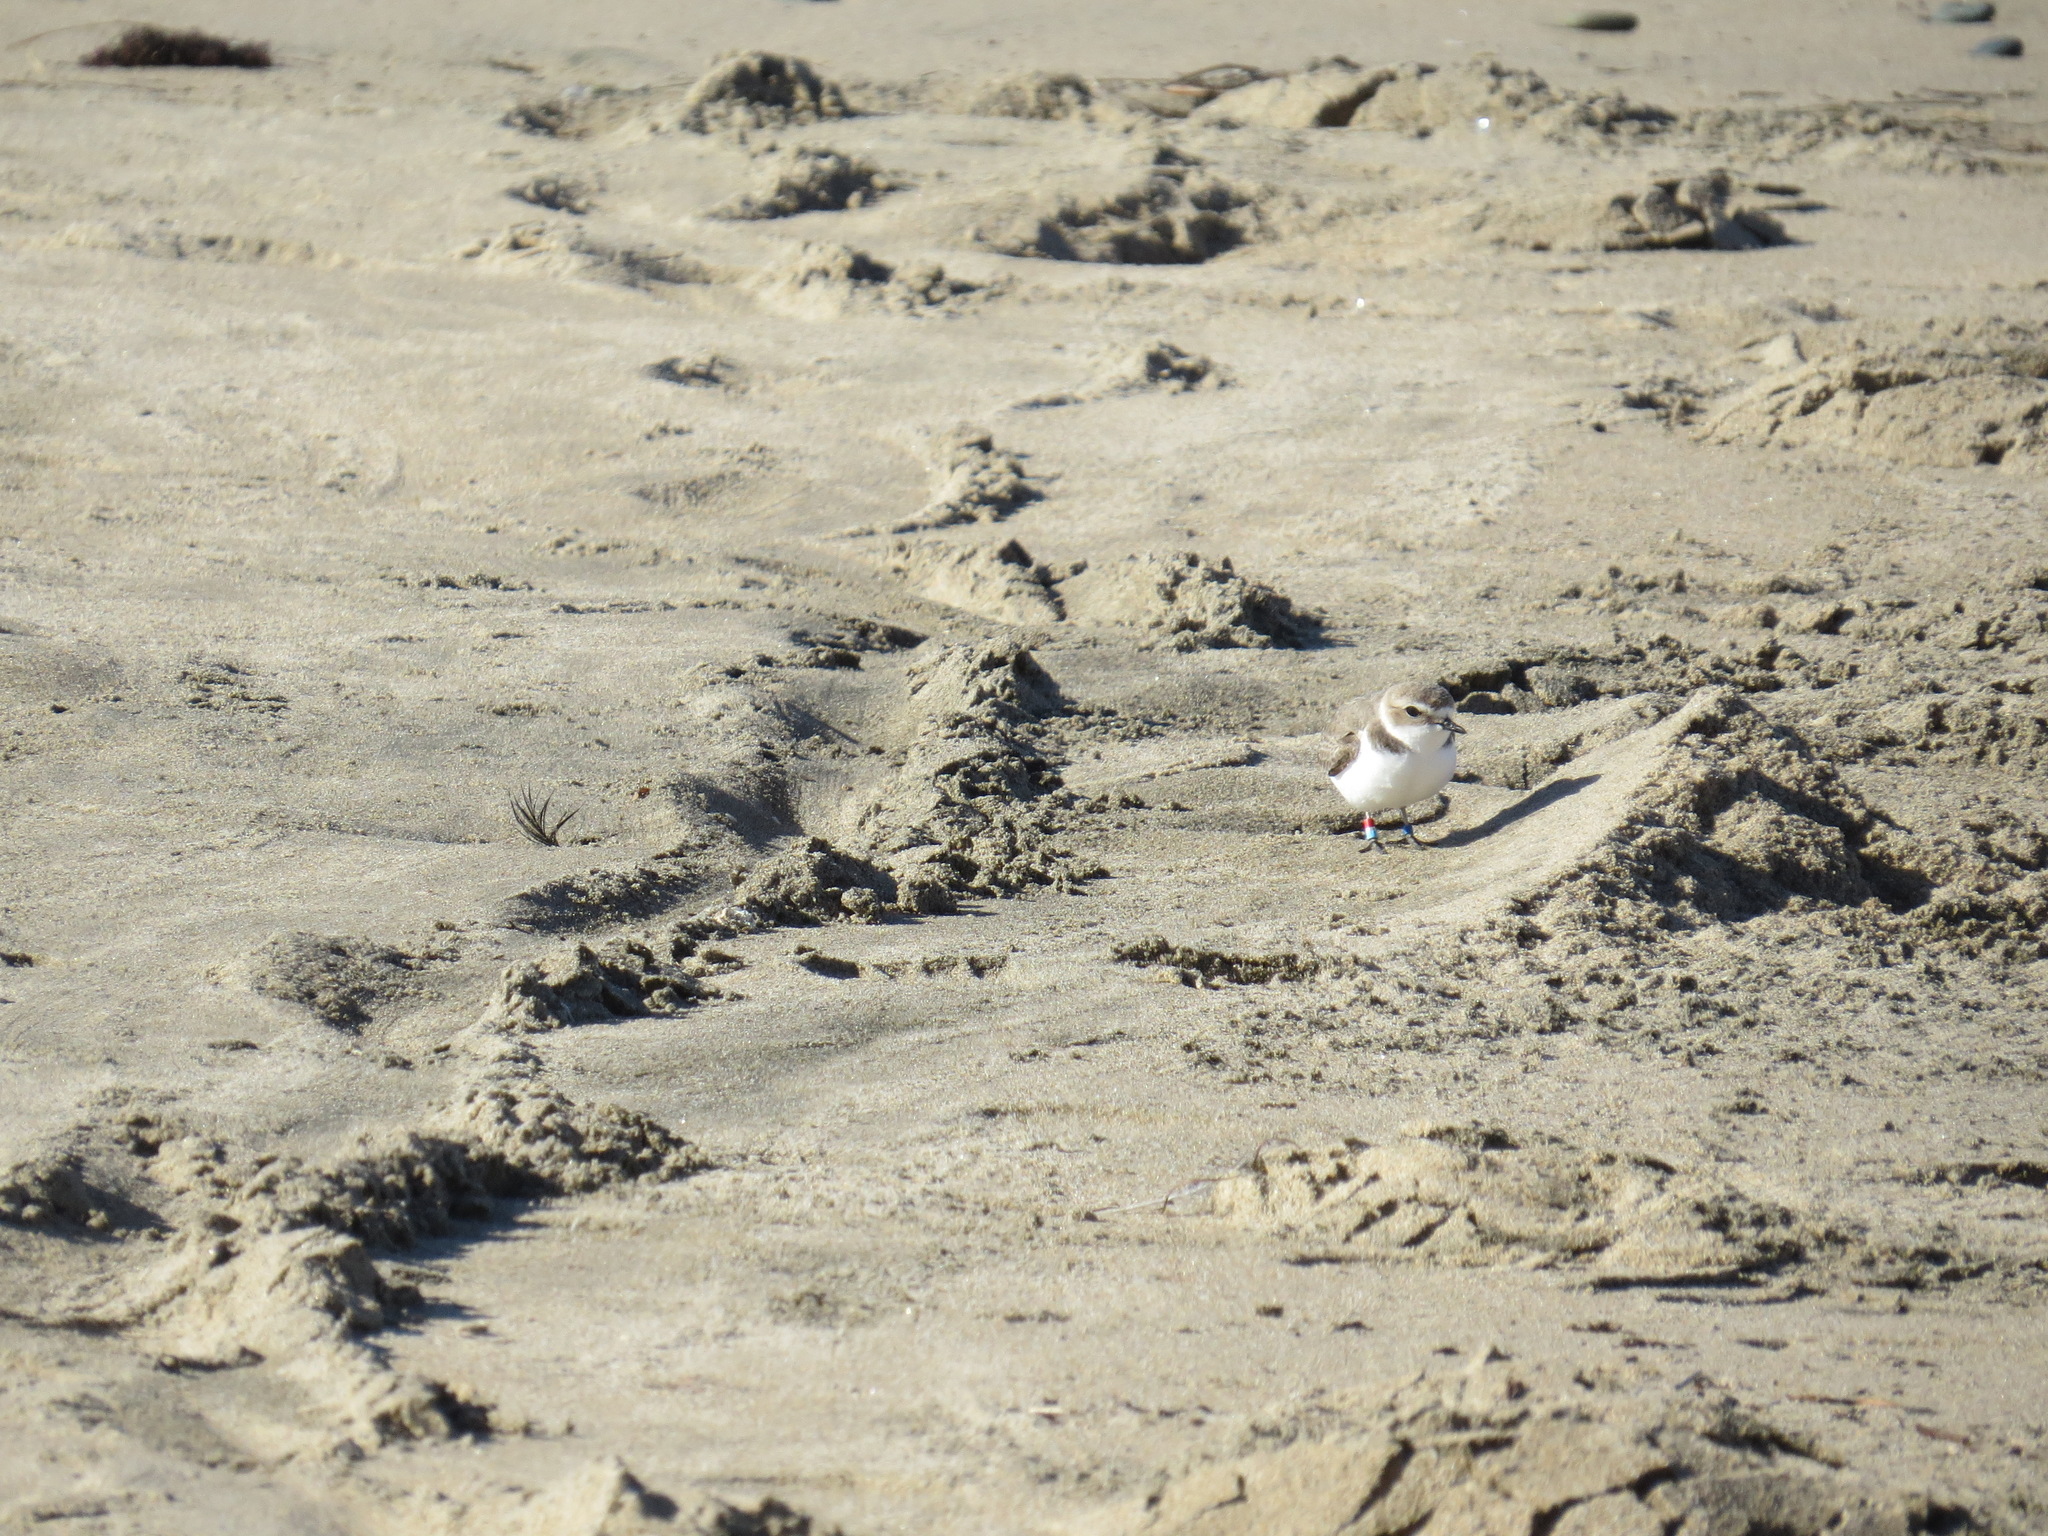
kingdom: Animalia
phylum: Chordata
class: Aves
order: Charadriiformes
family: Charadriidae
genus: Anarhynchus
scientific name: Anarhynchus
